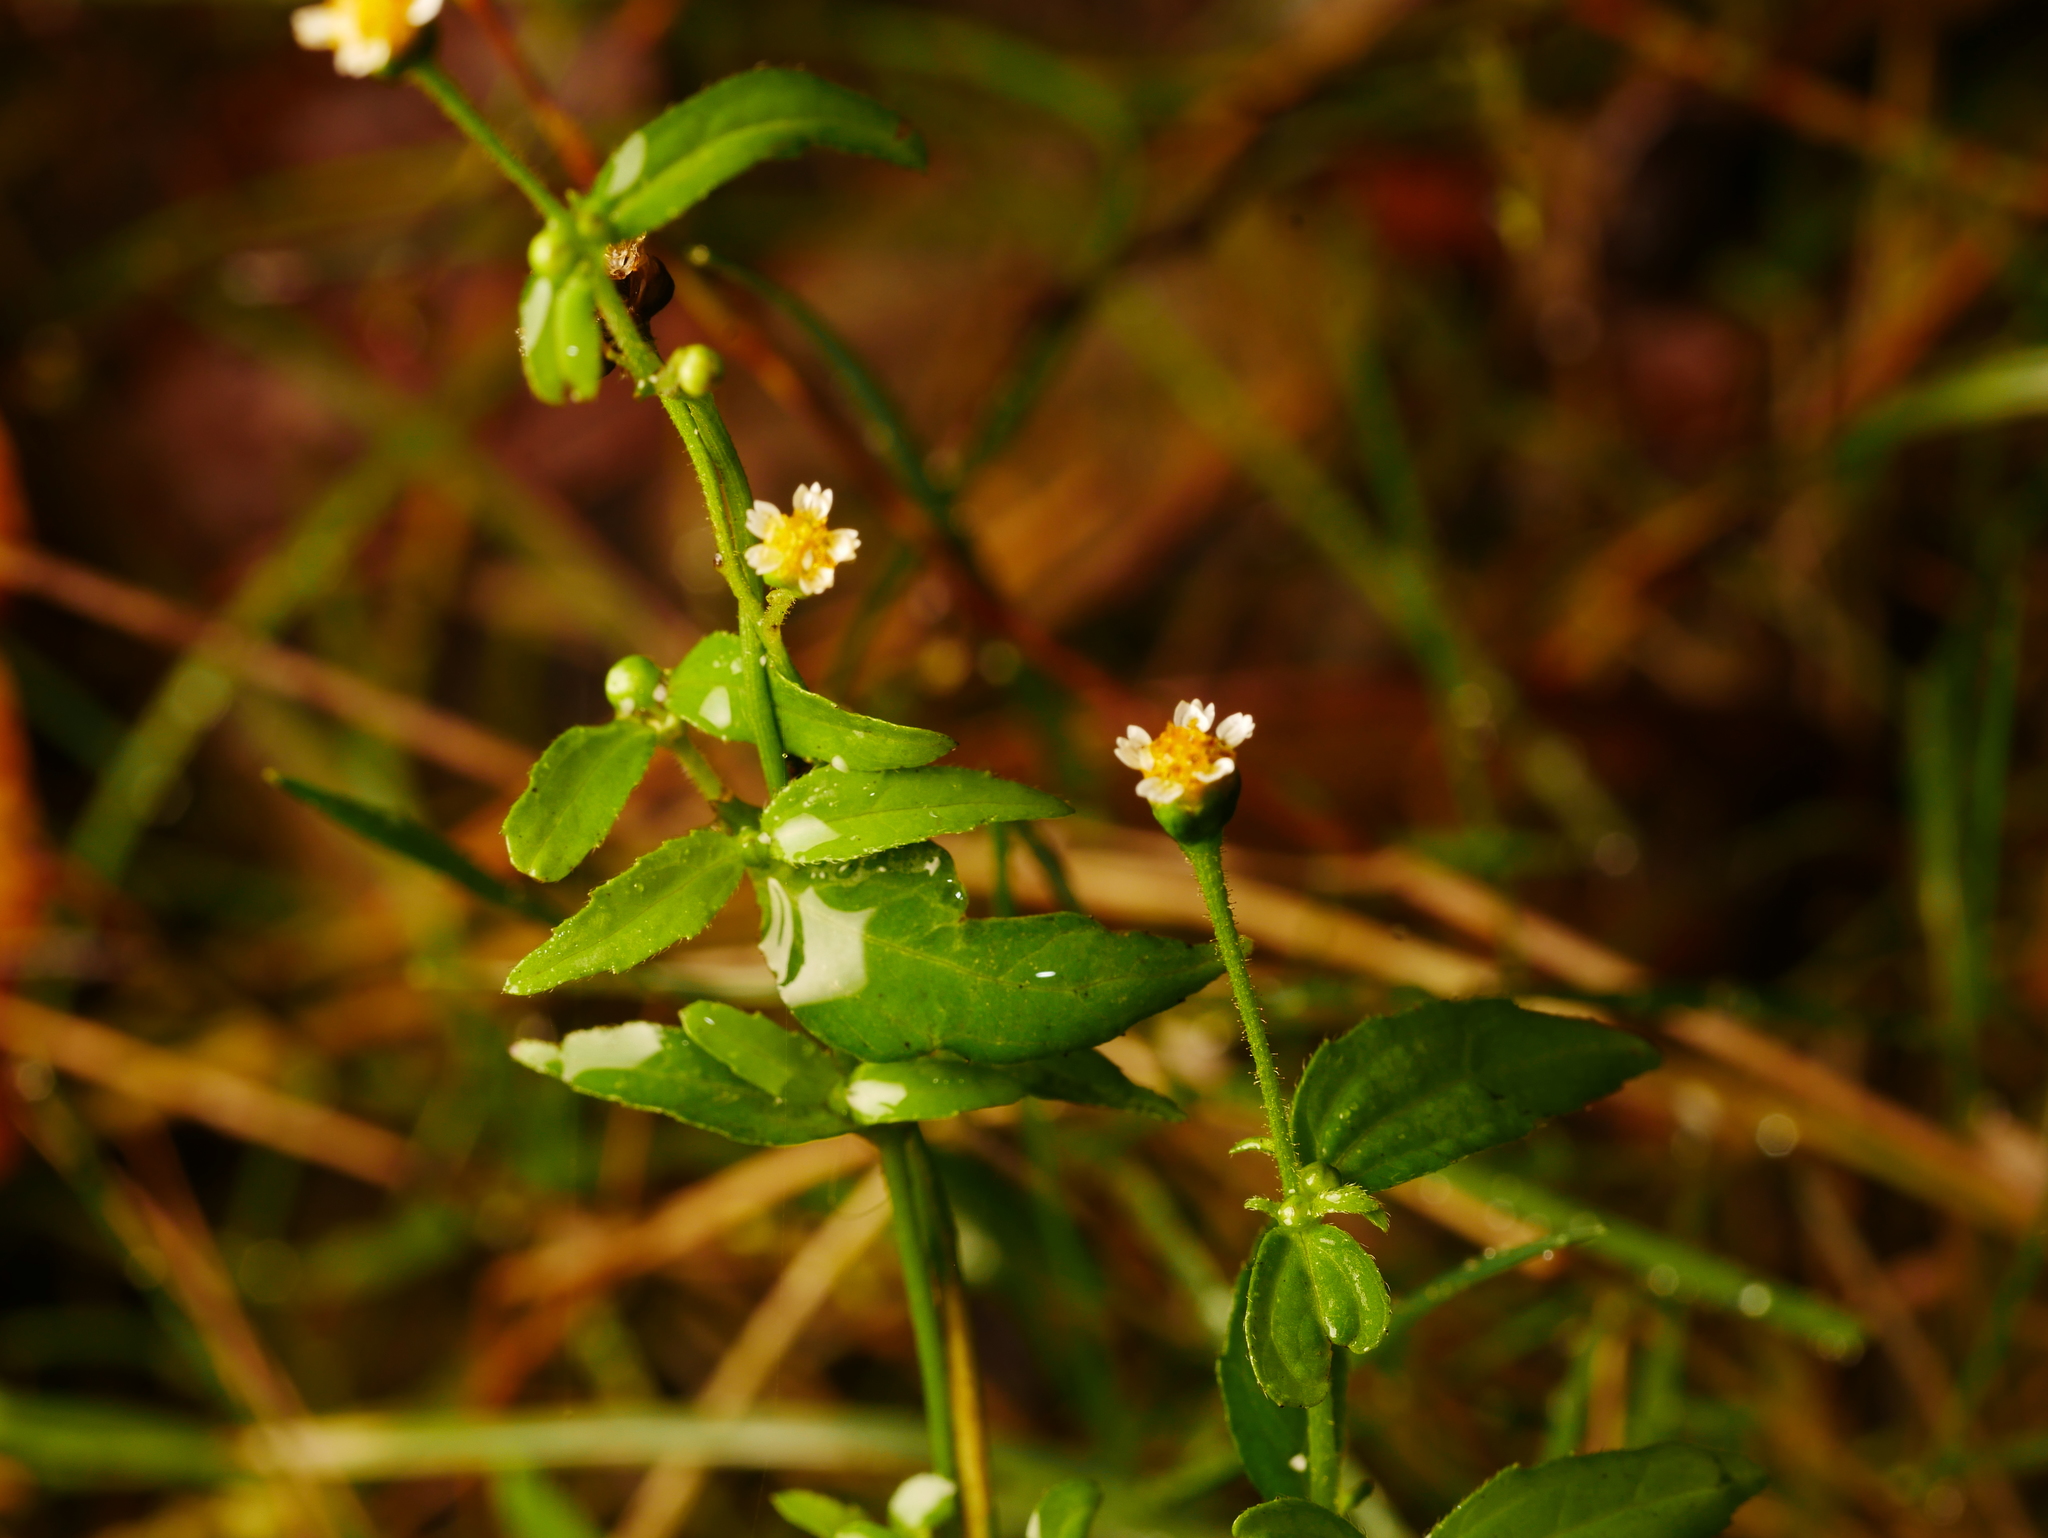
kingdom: Plantae
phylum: Tracheophyta
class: Magnoliopsida
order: Asterales
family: Asteraceae
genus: Galinsoga
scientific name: Galinsoga quadriradiata
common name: Shaggy soldier
